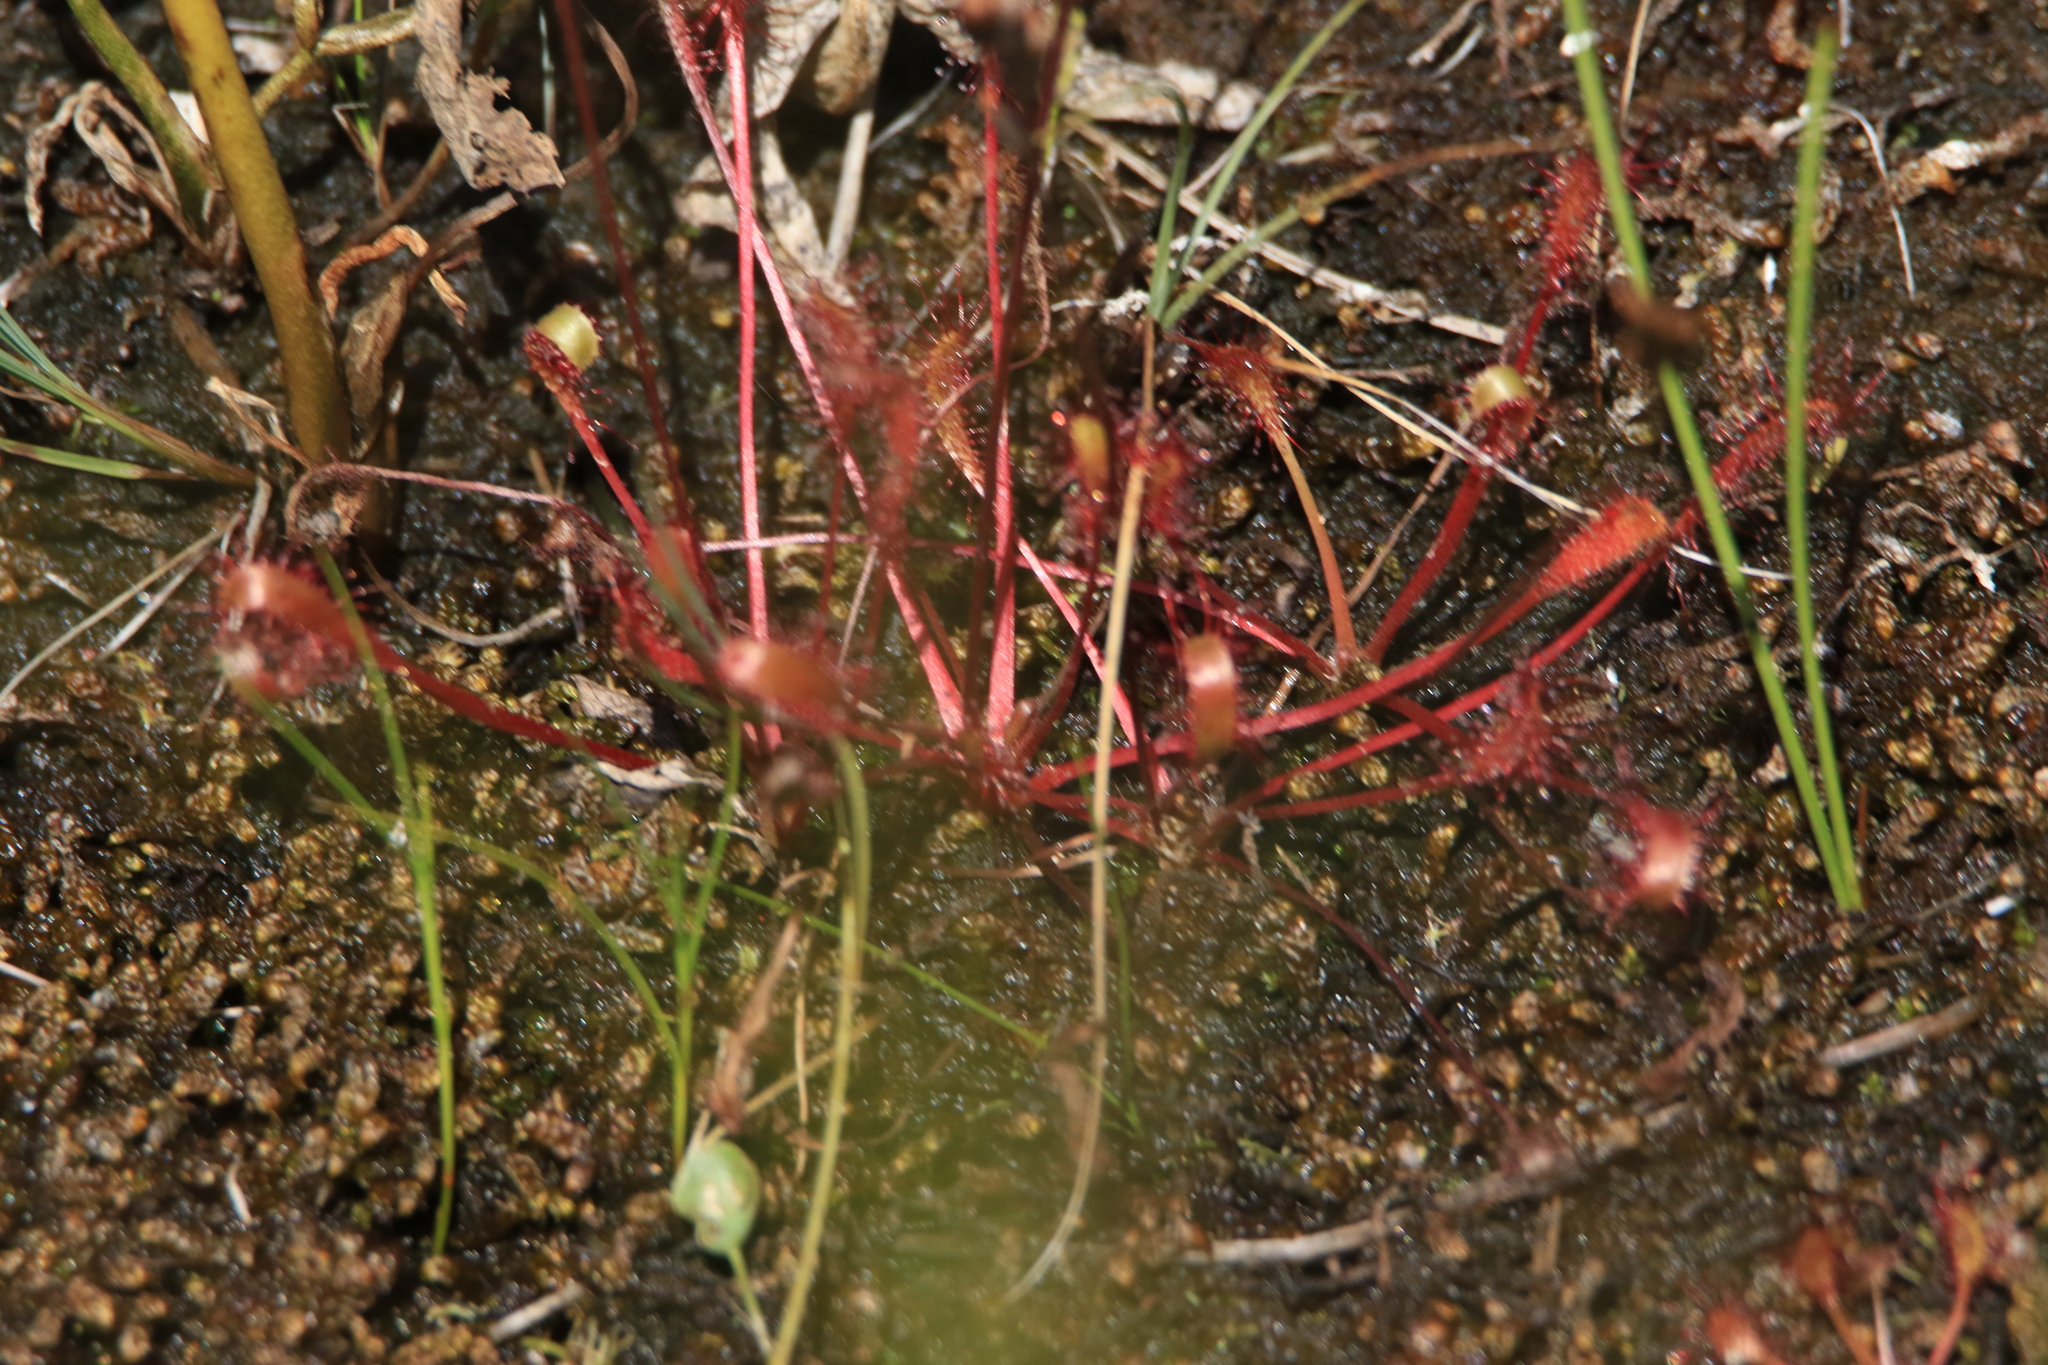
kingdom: Plantae
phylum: Tracheophyta
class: Magnoliopsida
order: Caryophyllales
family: Droseraceae
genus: Drosera
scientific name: Drosera anglica
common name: Great sundew
